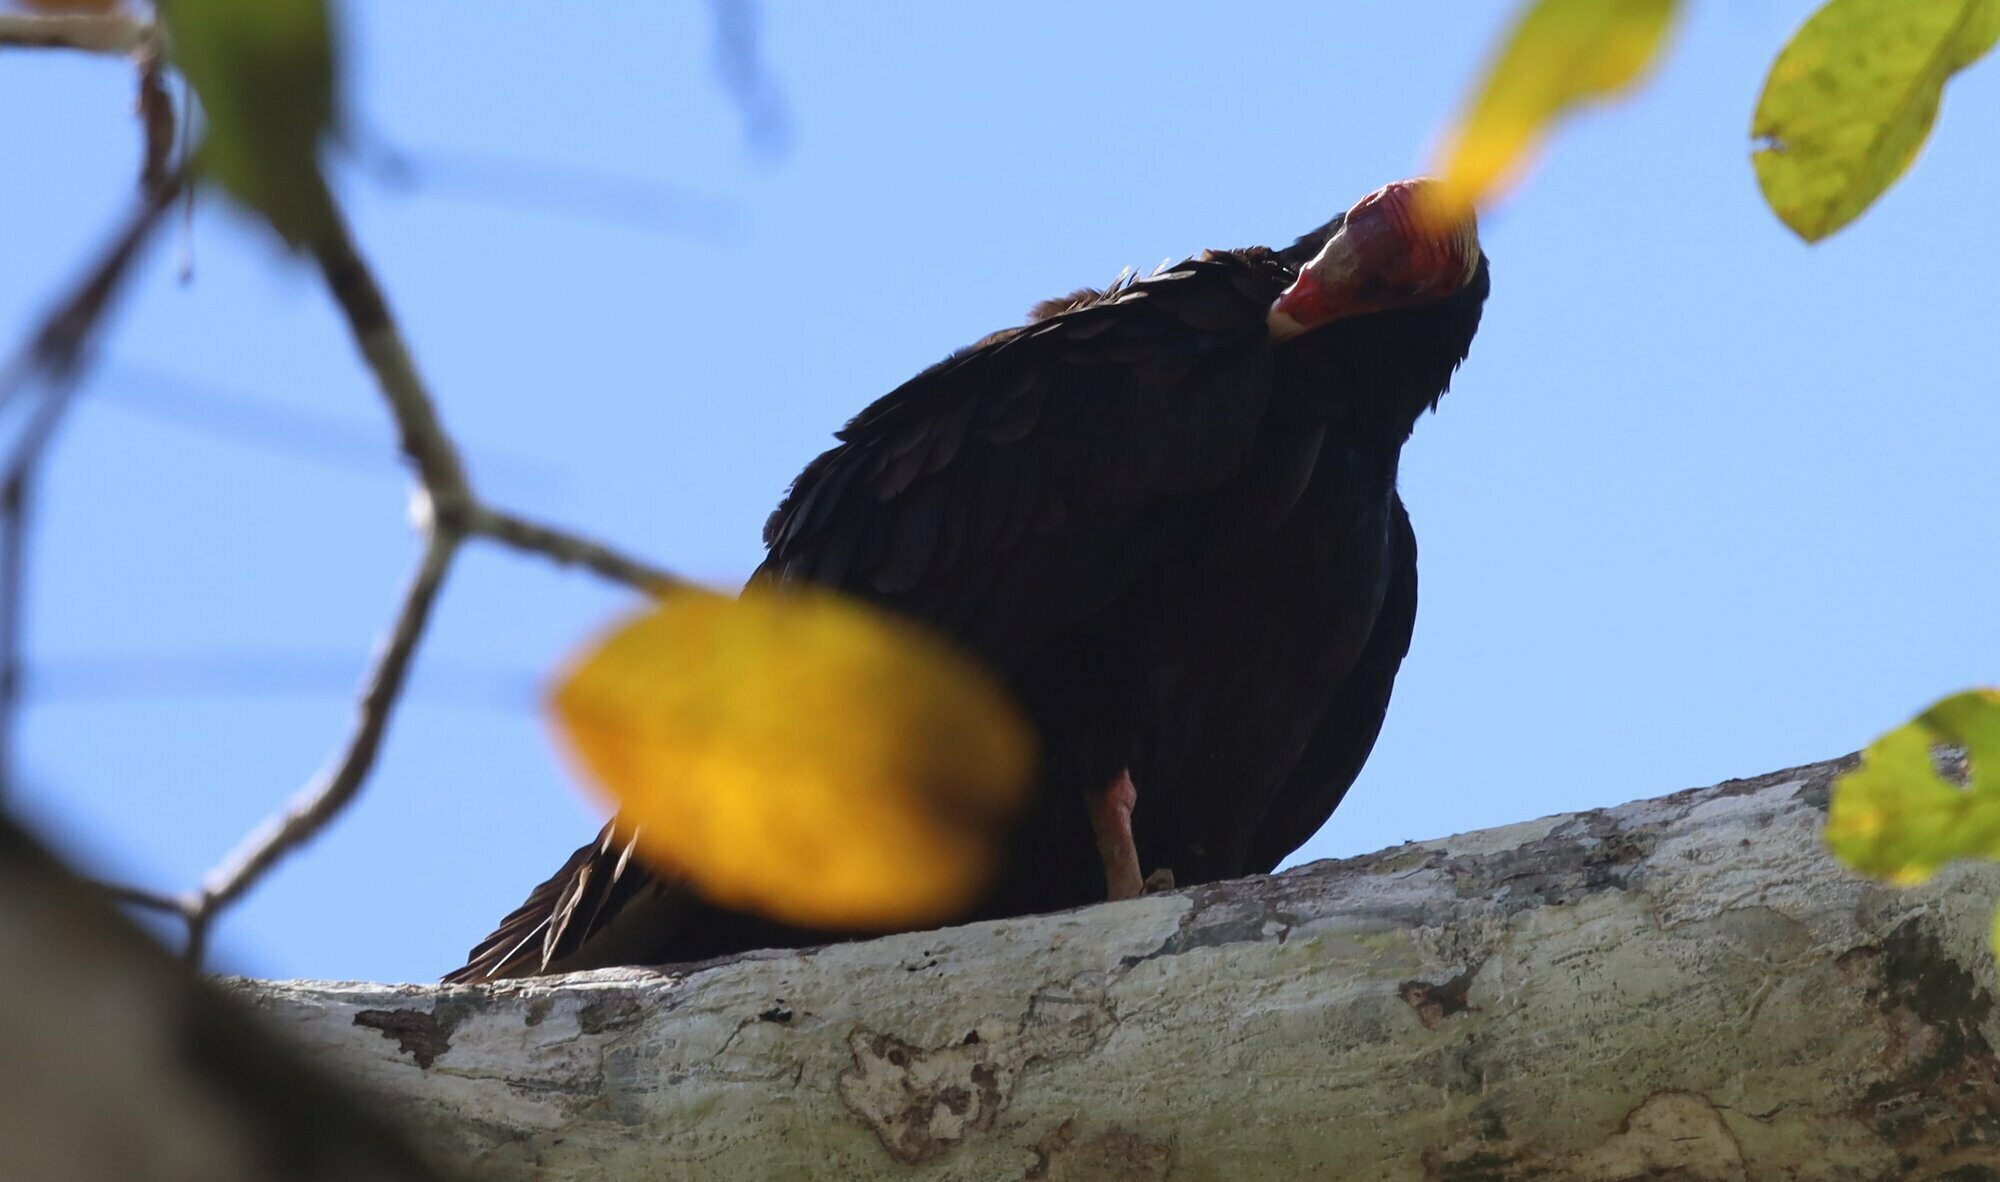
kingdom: Animalia
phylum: Chordata
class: Aves
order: Accipitriformes
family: Cathartidae
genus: Cathartes
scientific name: Cathartes aura
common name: Turkey vulture
